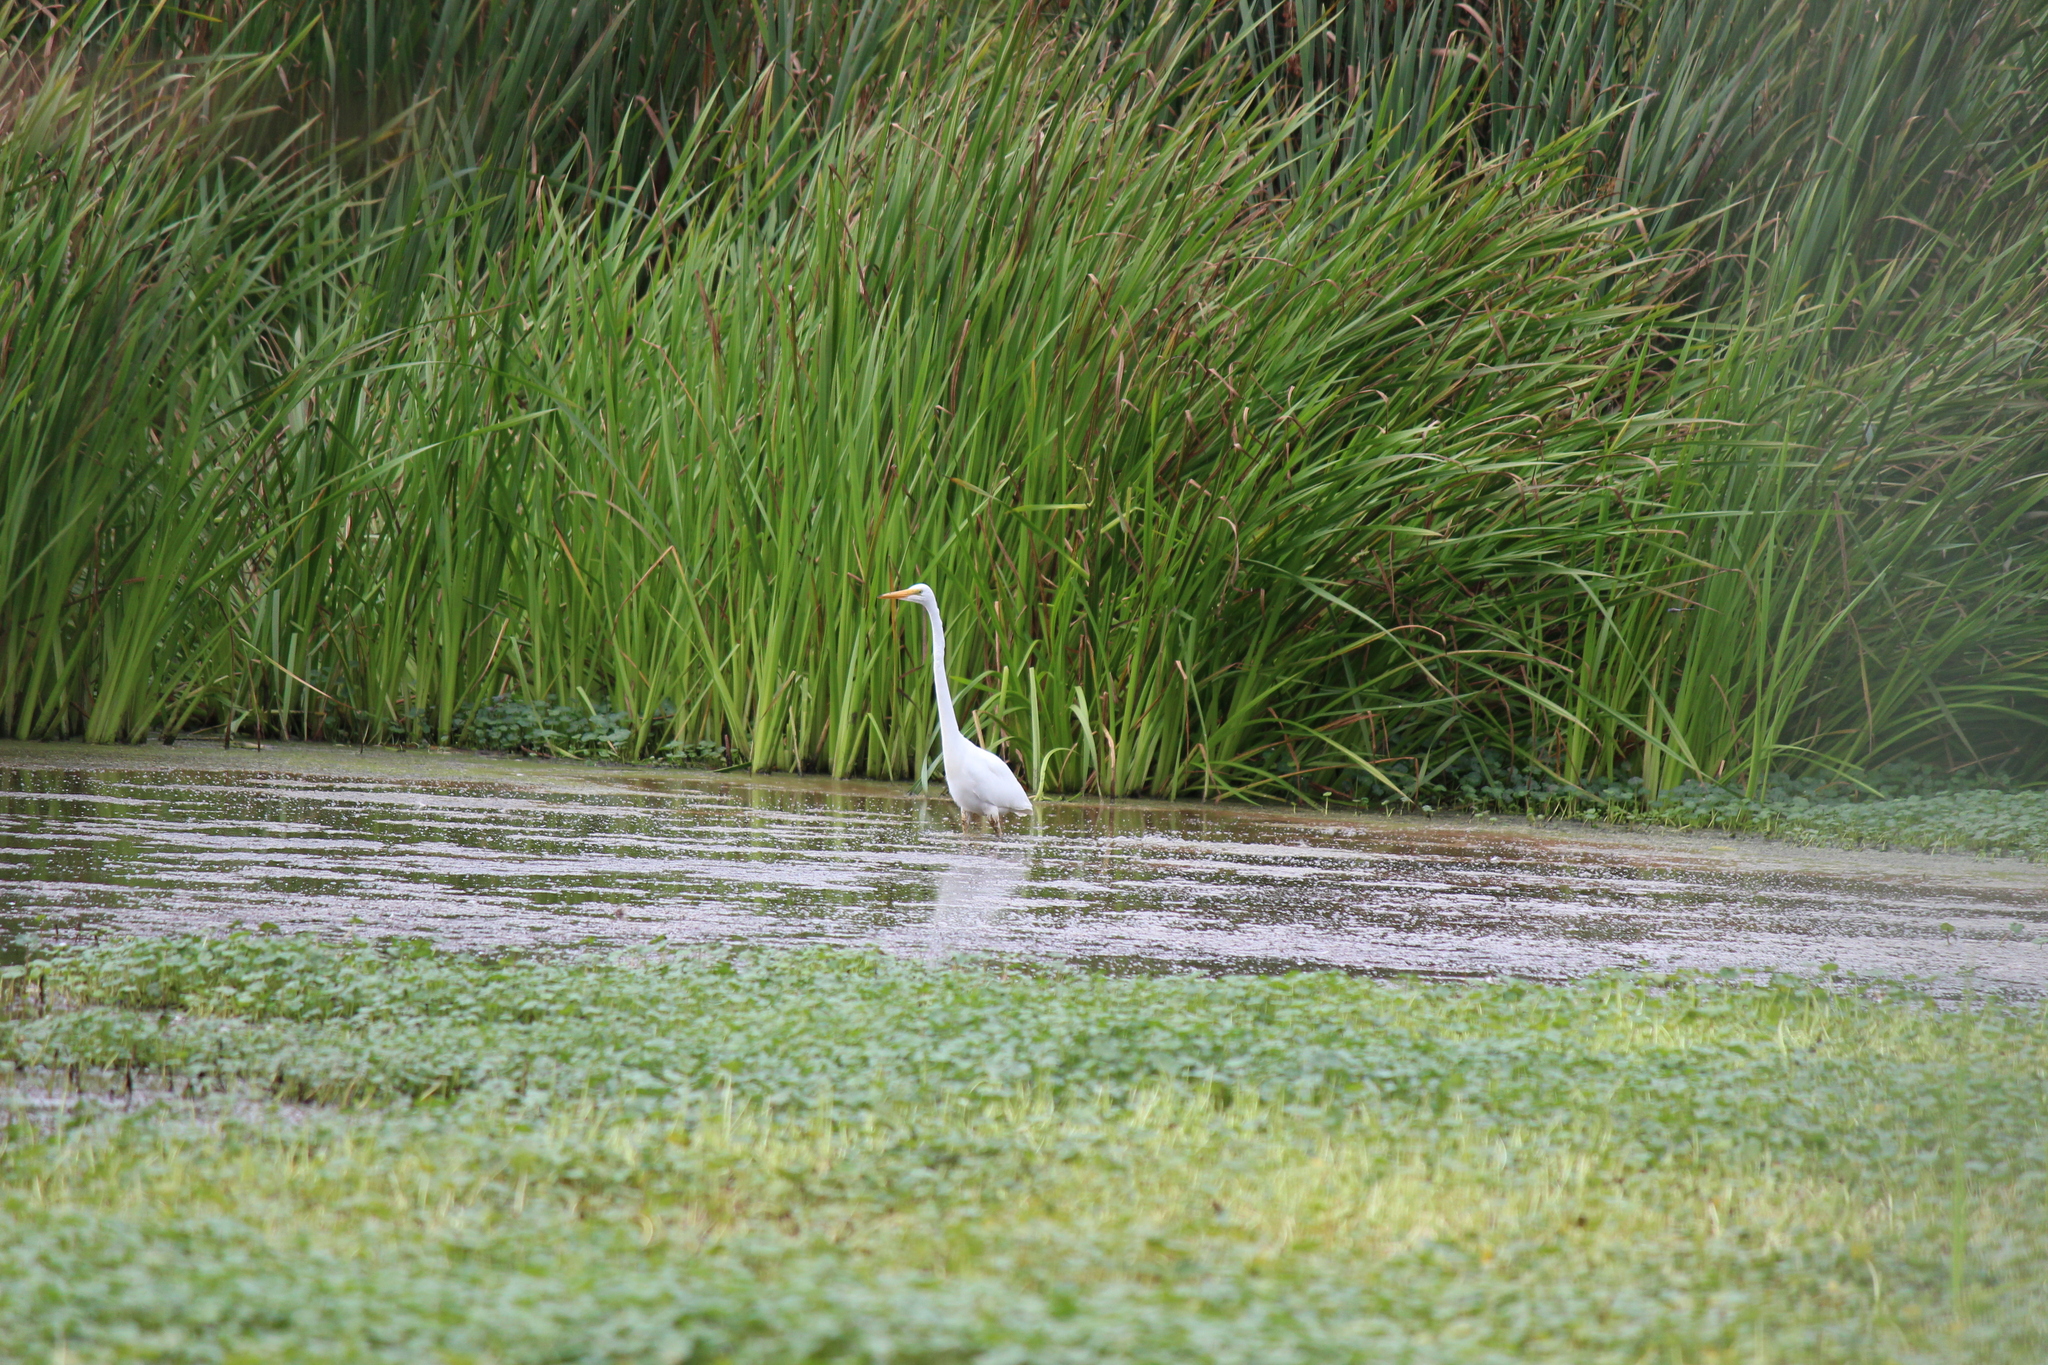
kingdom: Animalia
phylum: Chordata
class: Aves
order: Pelecaniformes
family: Ardeidae
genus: Ardea
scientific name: Ardea alba
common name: Great egret
